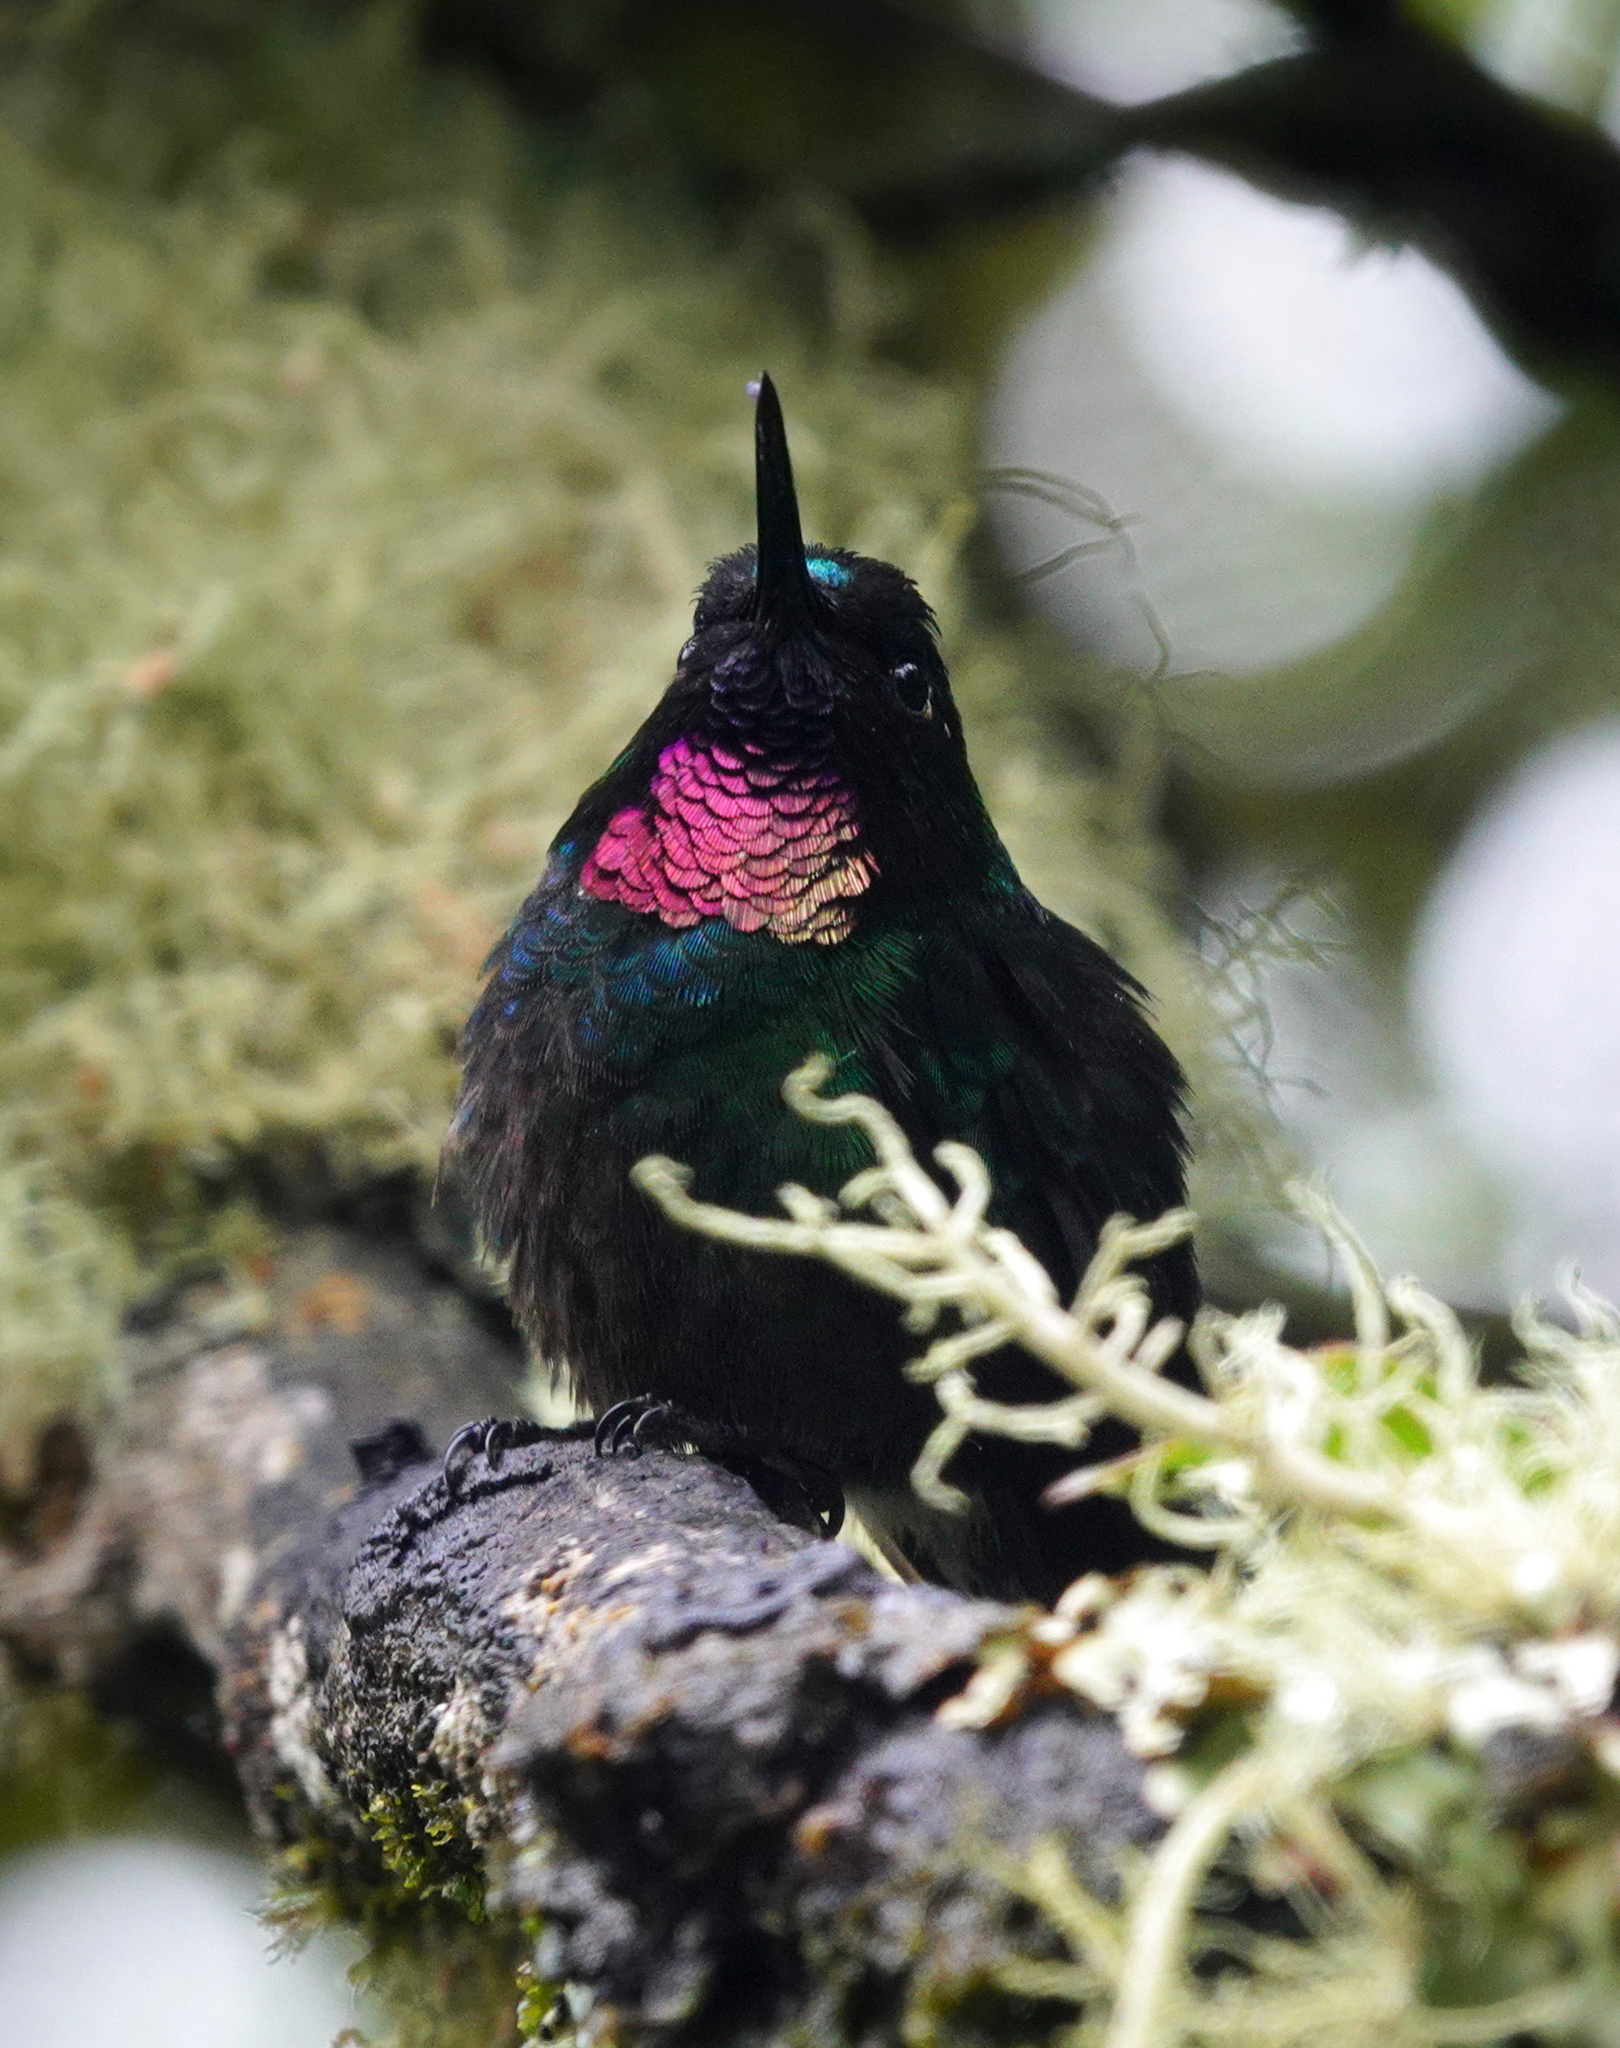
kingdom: Animalia
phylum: Chordata
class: Aves
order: Apodiformes
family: Trochilidae
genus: Heliangelus
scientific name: Heliangelus exortis
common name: Tourmaline sunangel
